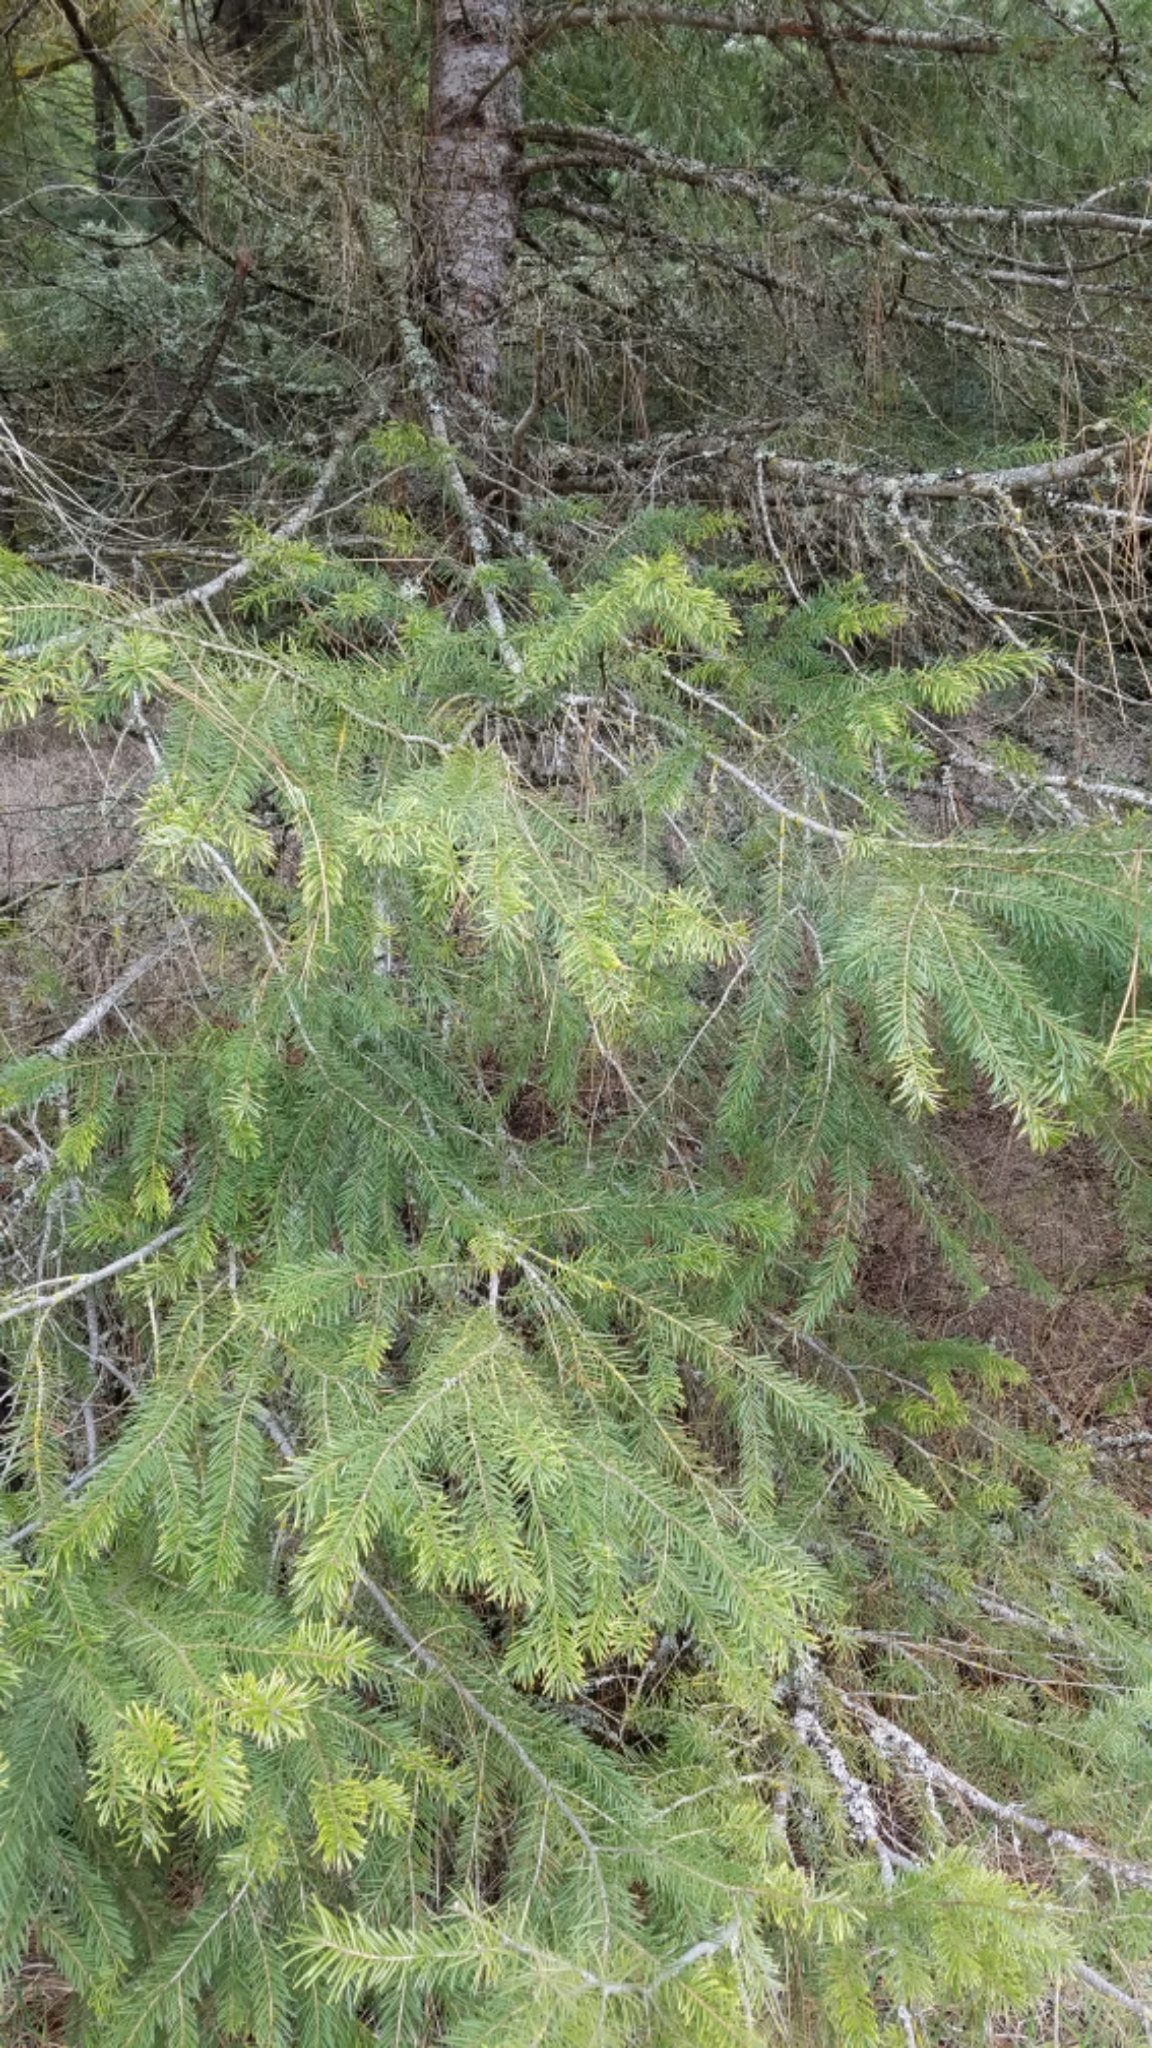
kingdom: Plantae
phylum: Tracheophyta
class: Pinopsida
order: Pinales
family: Pinaceae
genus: Pseudotsuga
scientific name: Pseudotsuga menziesii
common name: Douglas fir
